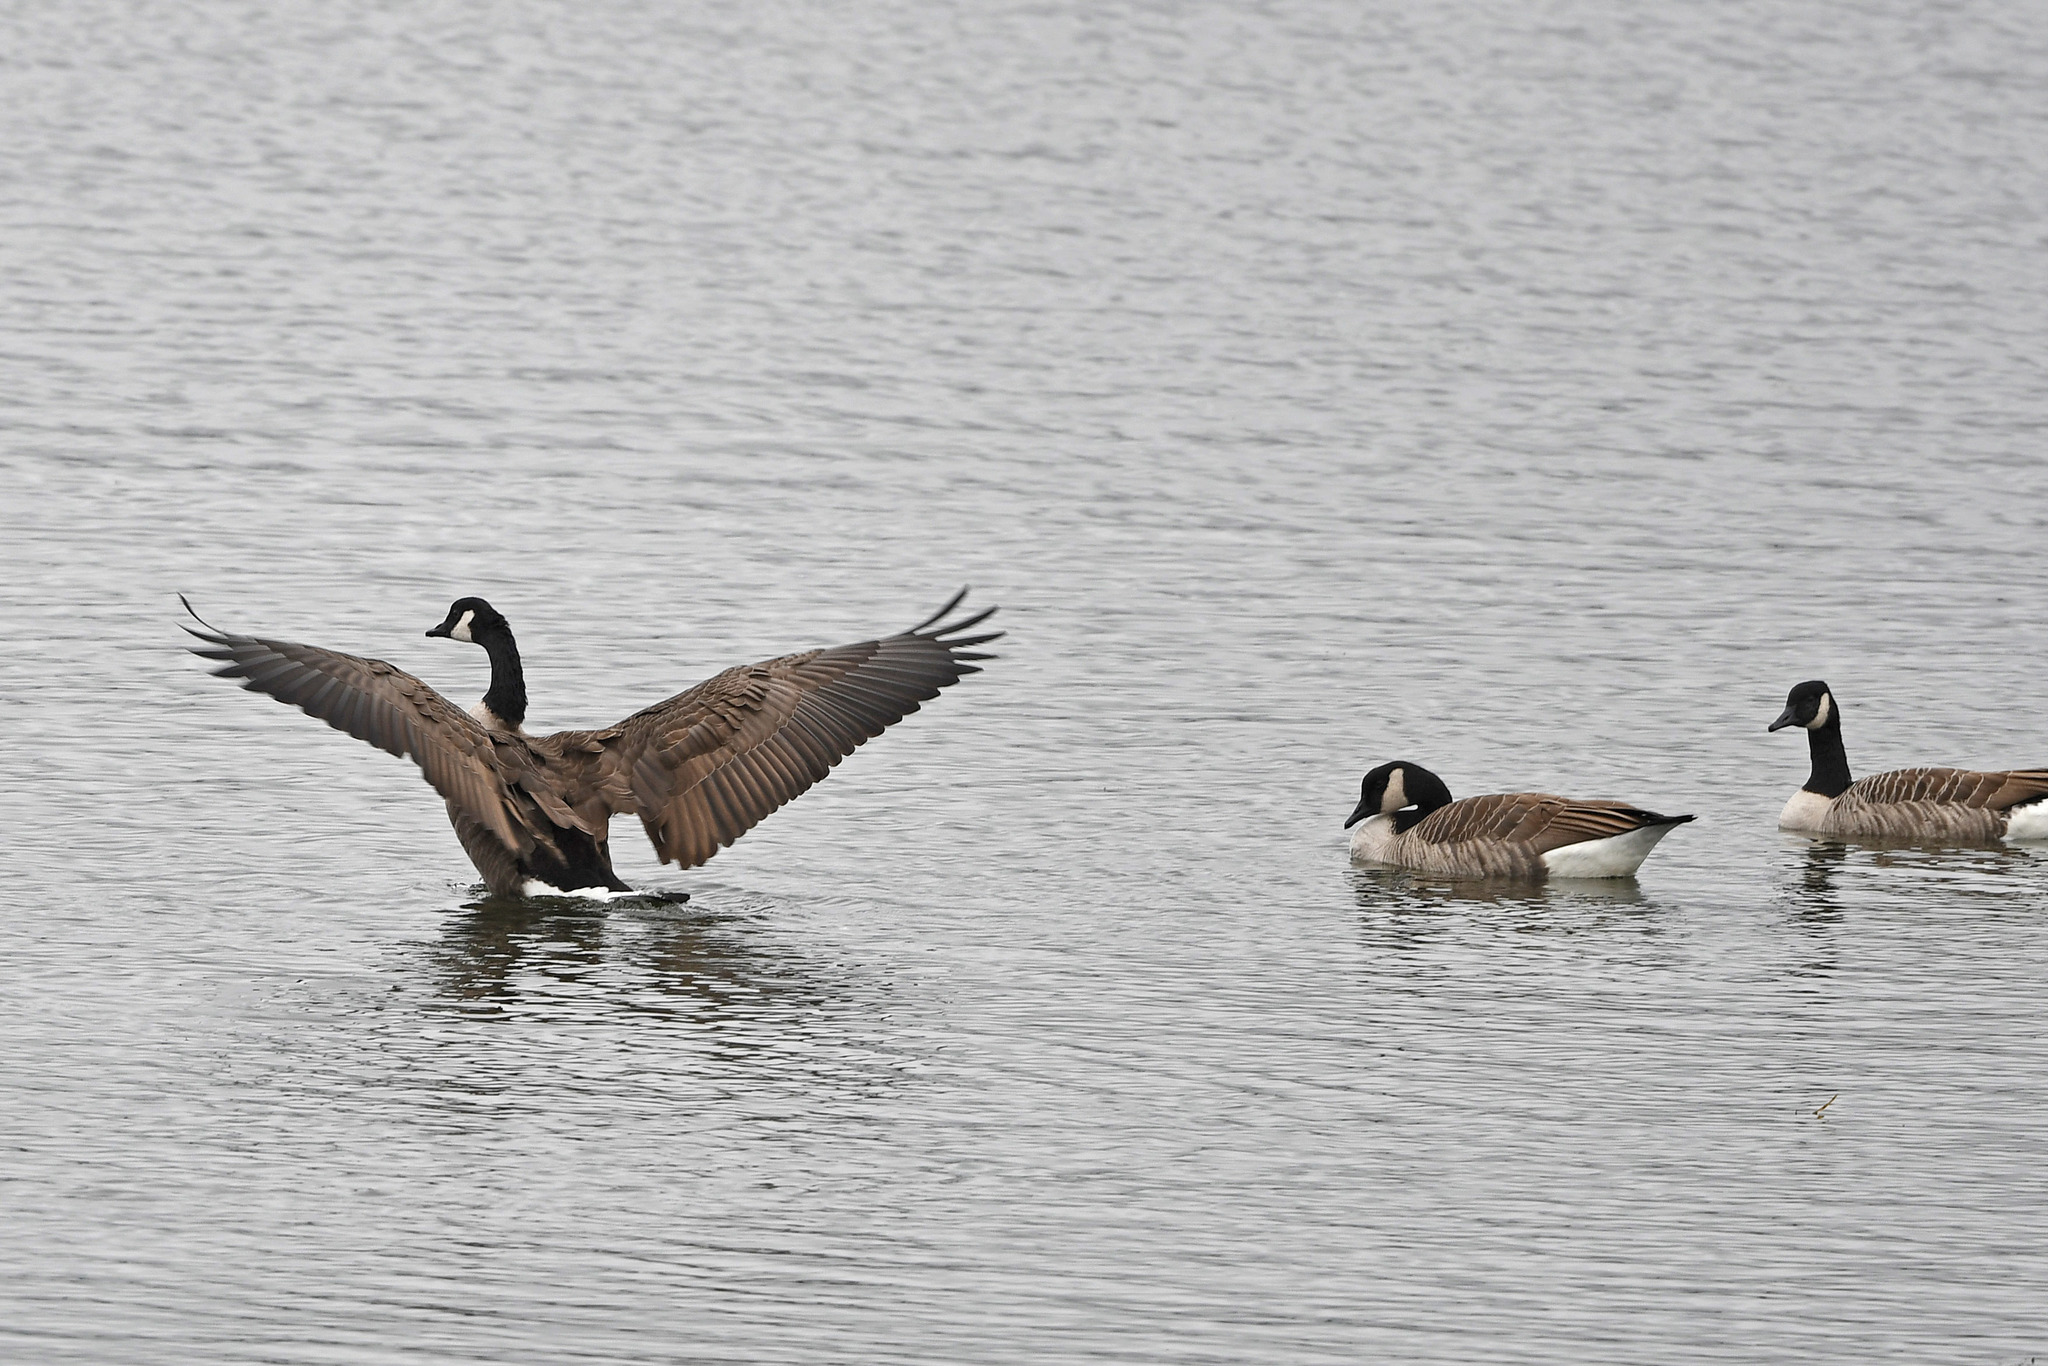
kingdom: Animalia
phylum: Chordata
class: Aves
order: Anseriformes
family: Anatidae
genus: Branta
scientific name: Branta canadensis
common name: Canada goose
